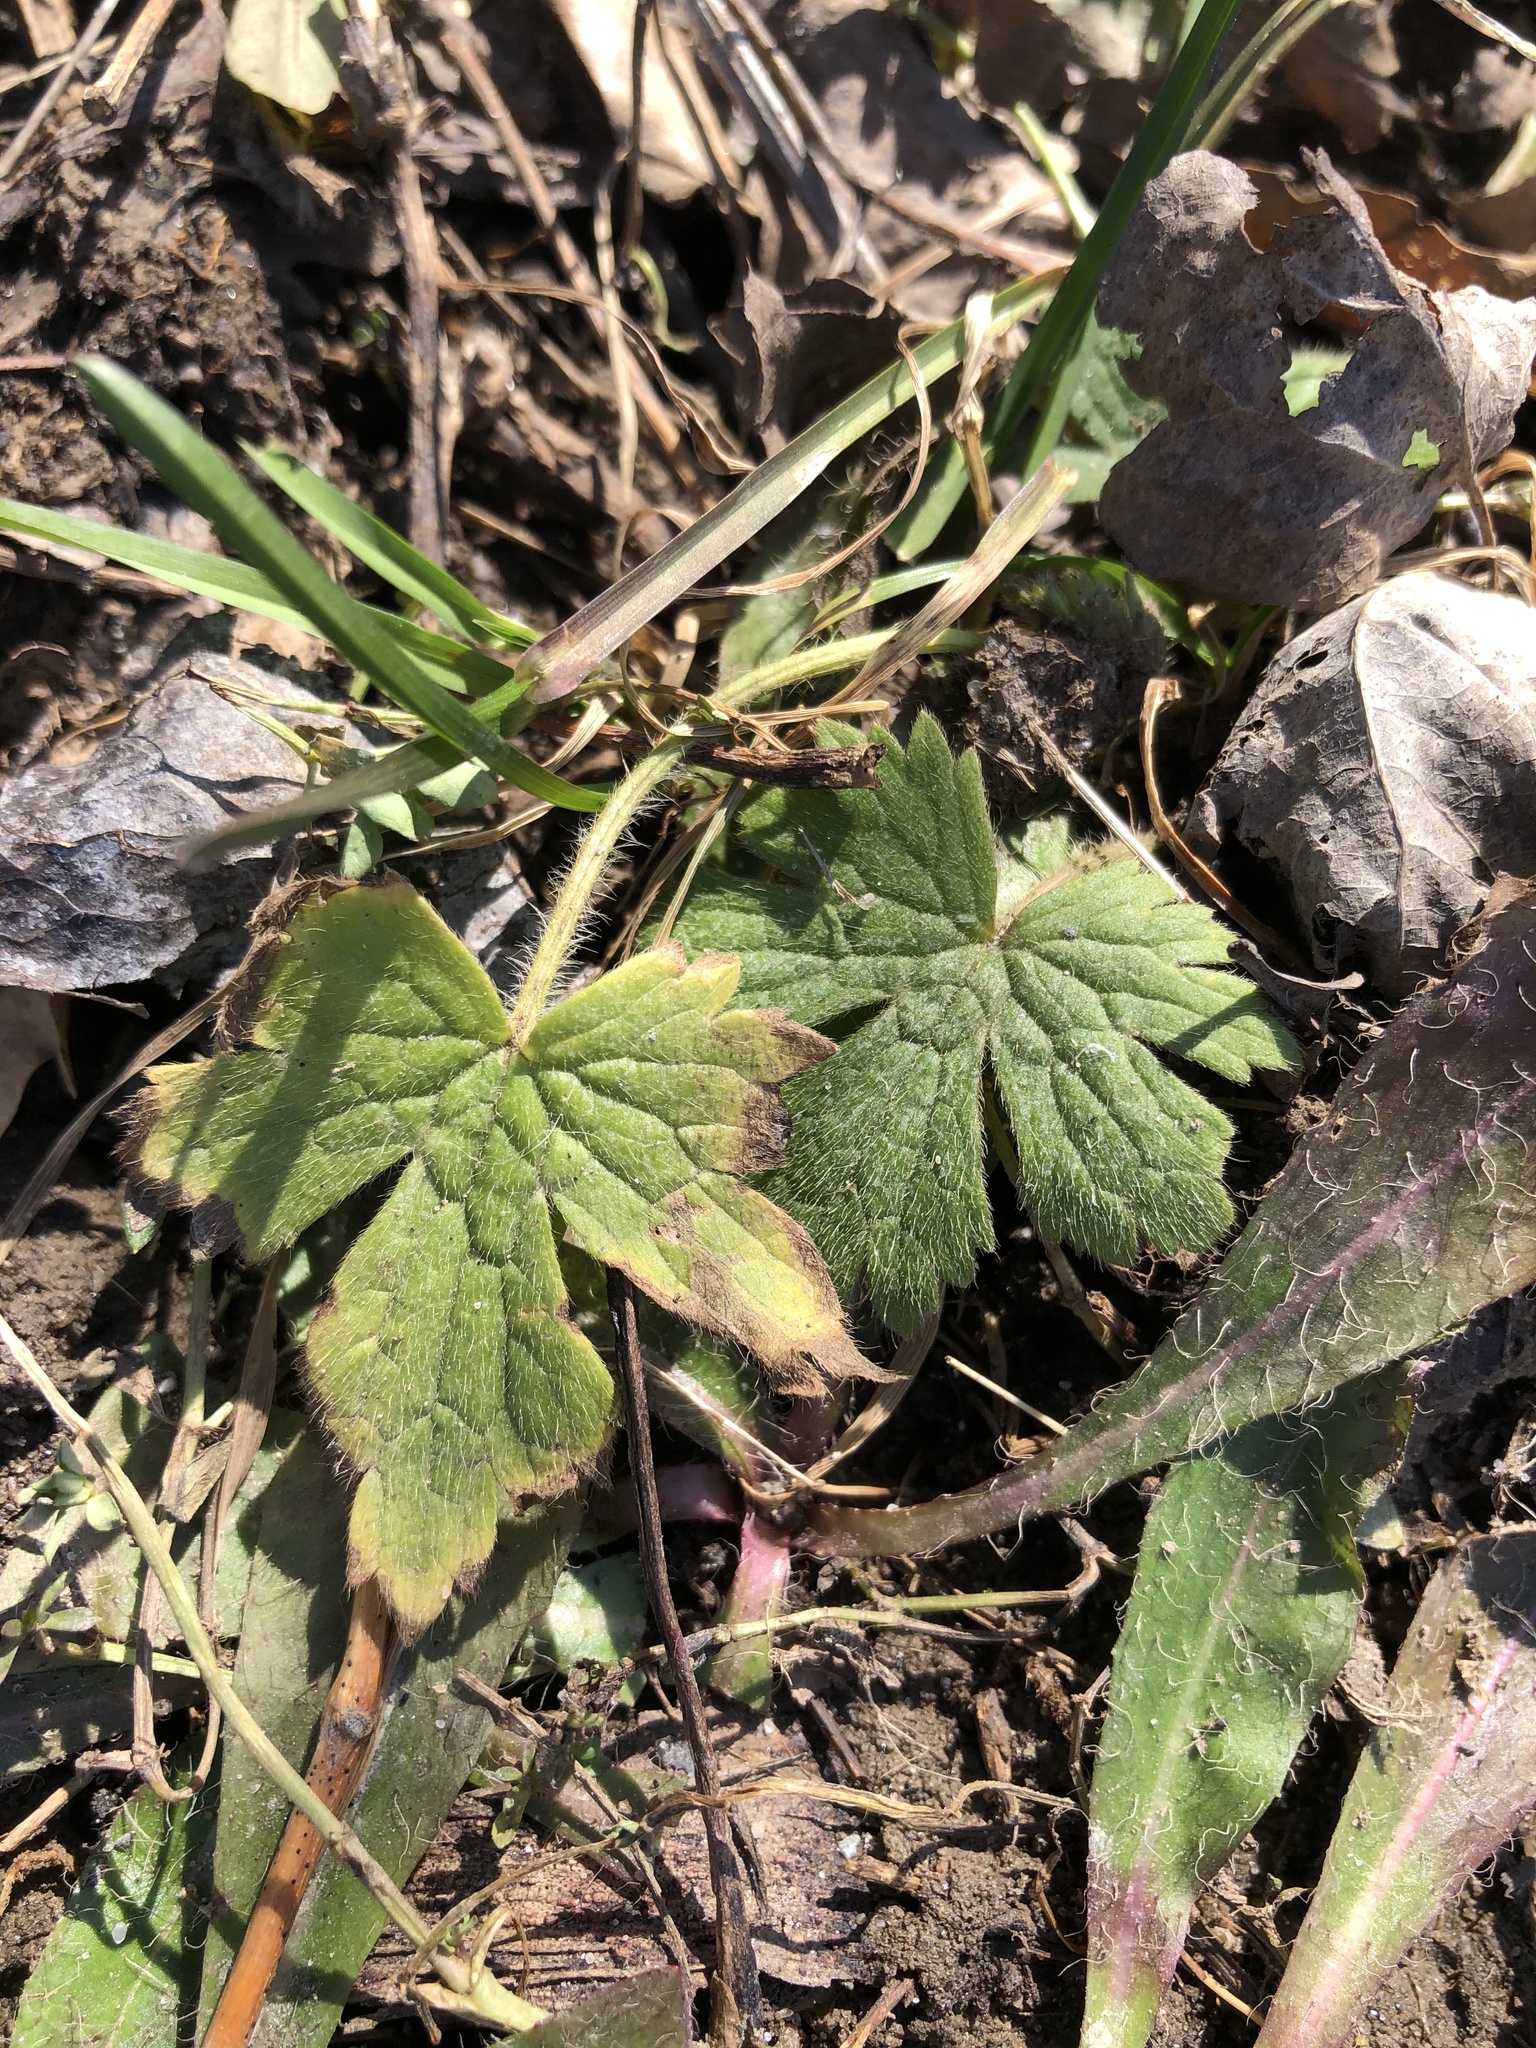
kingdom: Plantae
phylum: Tracheophyta
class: Magnoliopsida
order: Ranunculales
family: Ranunculaceae
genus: Ranunculus
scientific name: Ranunculus recurvatus
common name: Blisterwort
